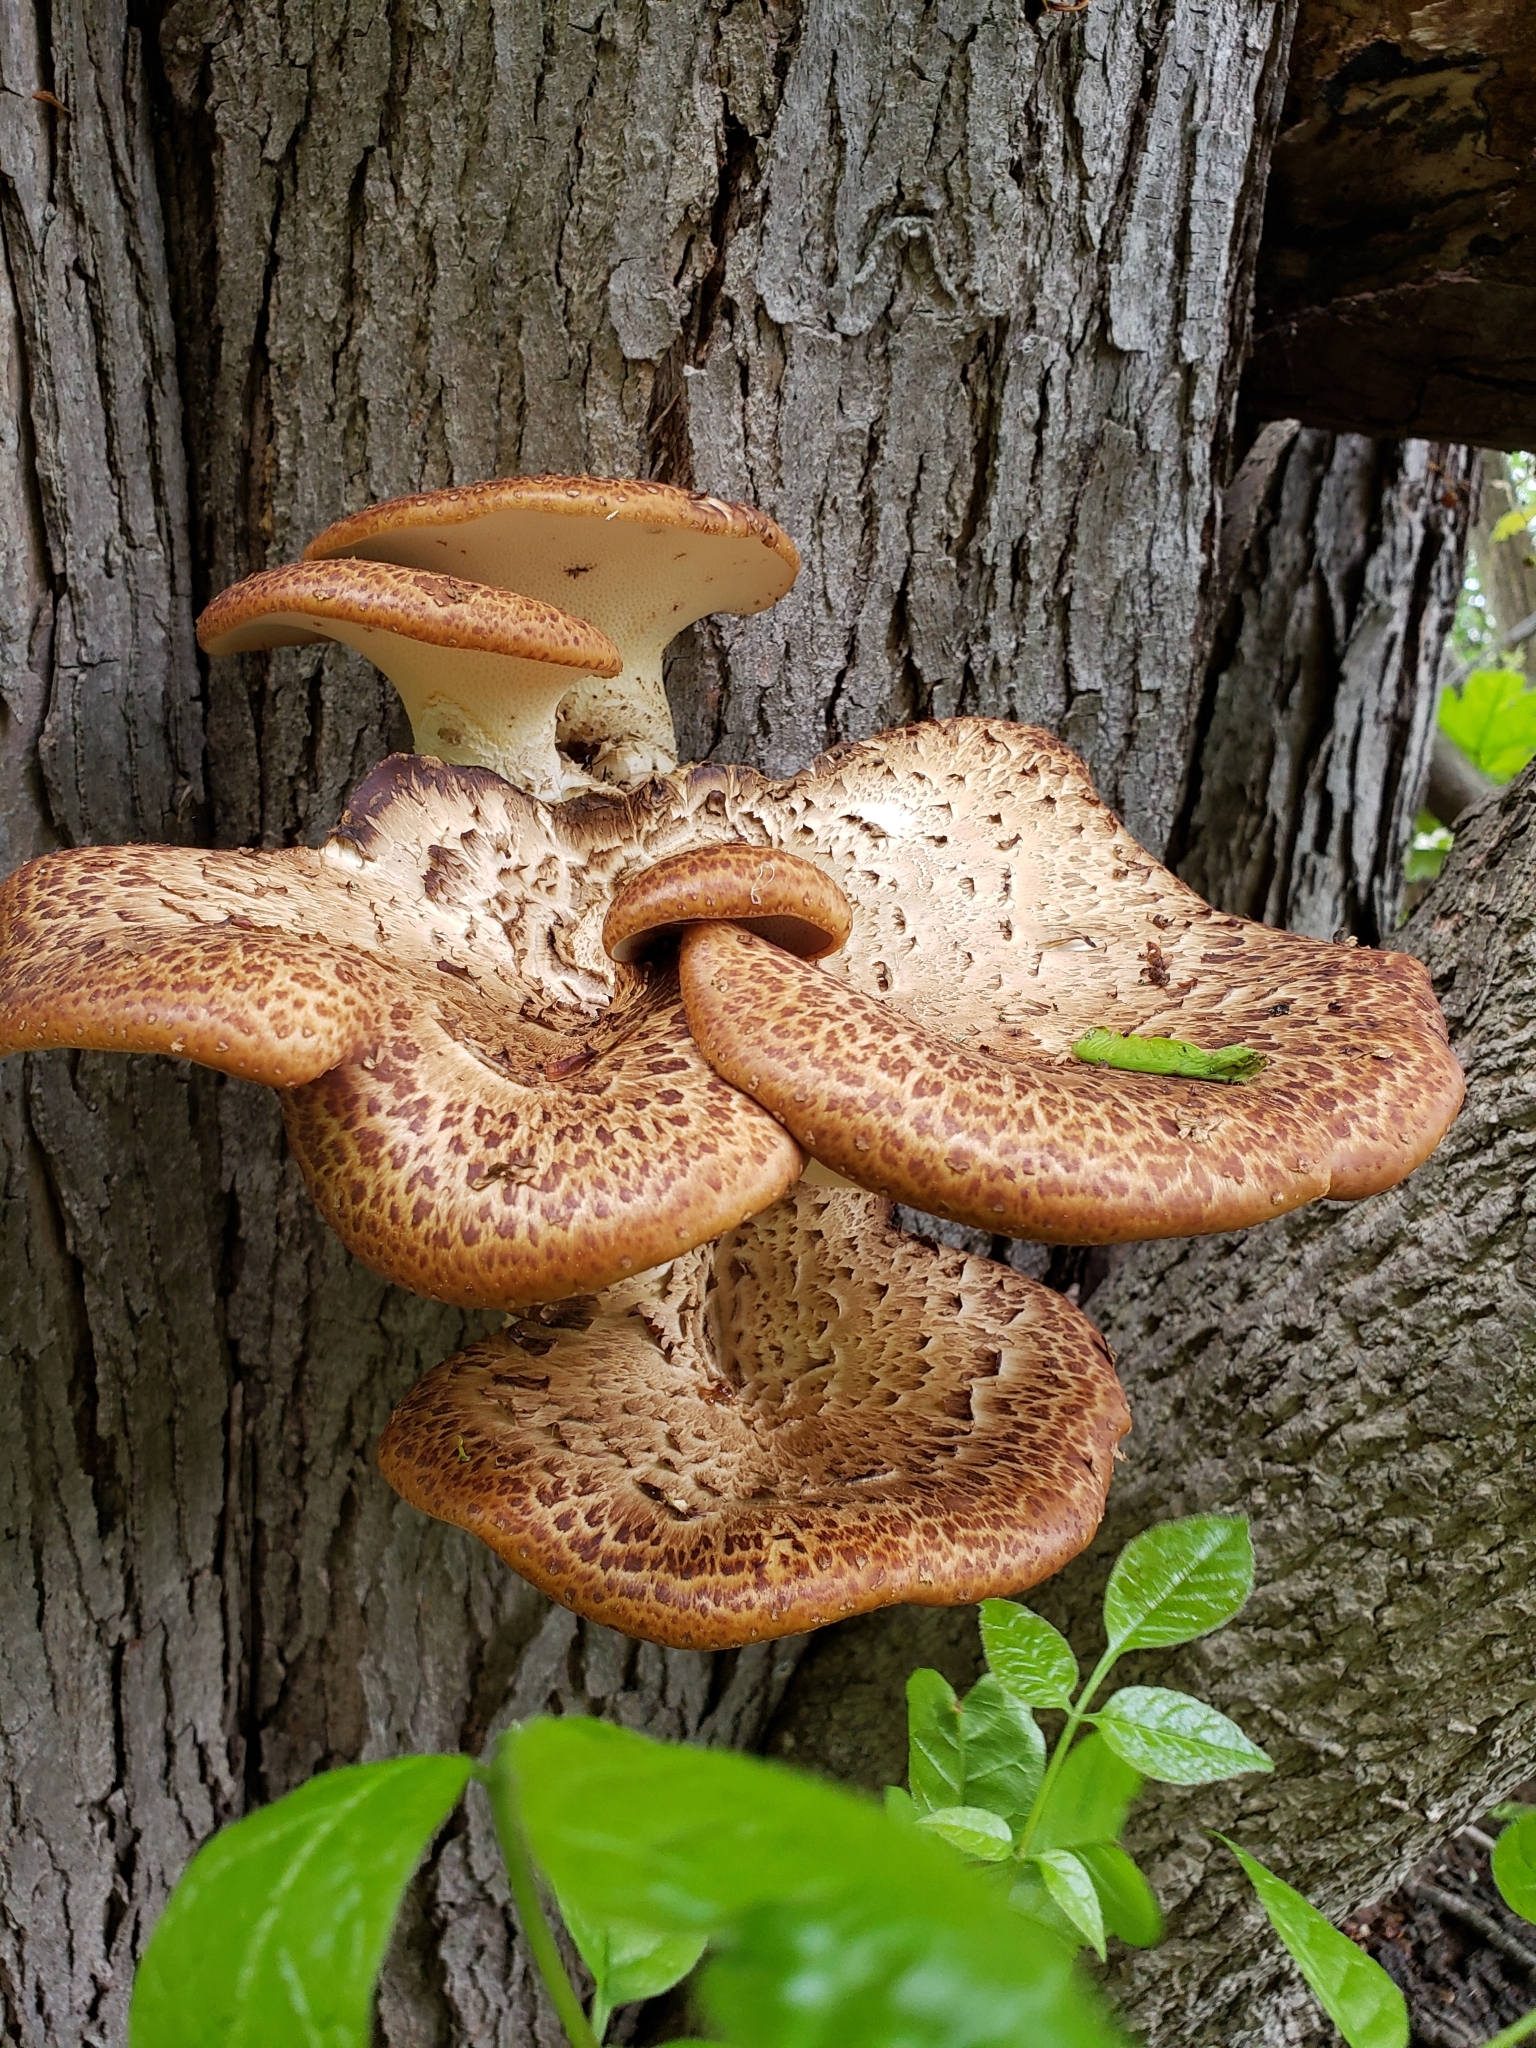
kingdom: Fungi
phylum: Basidiomycota
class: Agaricomycetes
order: Polyporales
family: Polyporaceae
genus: Cerioporus
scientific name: Cerioporus squamosus
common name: Dryad's saddle
